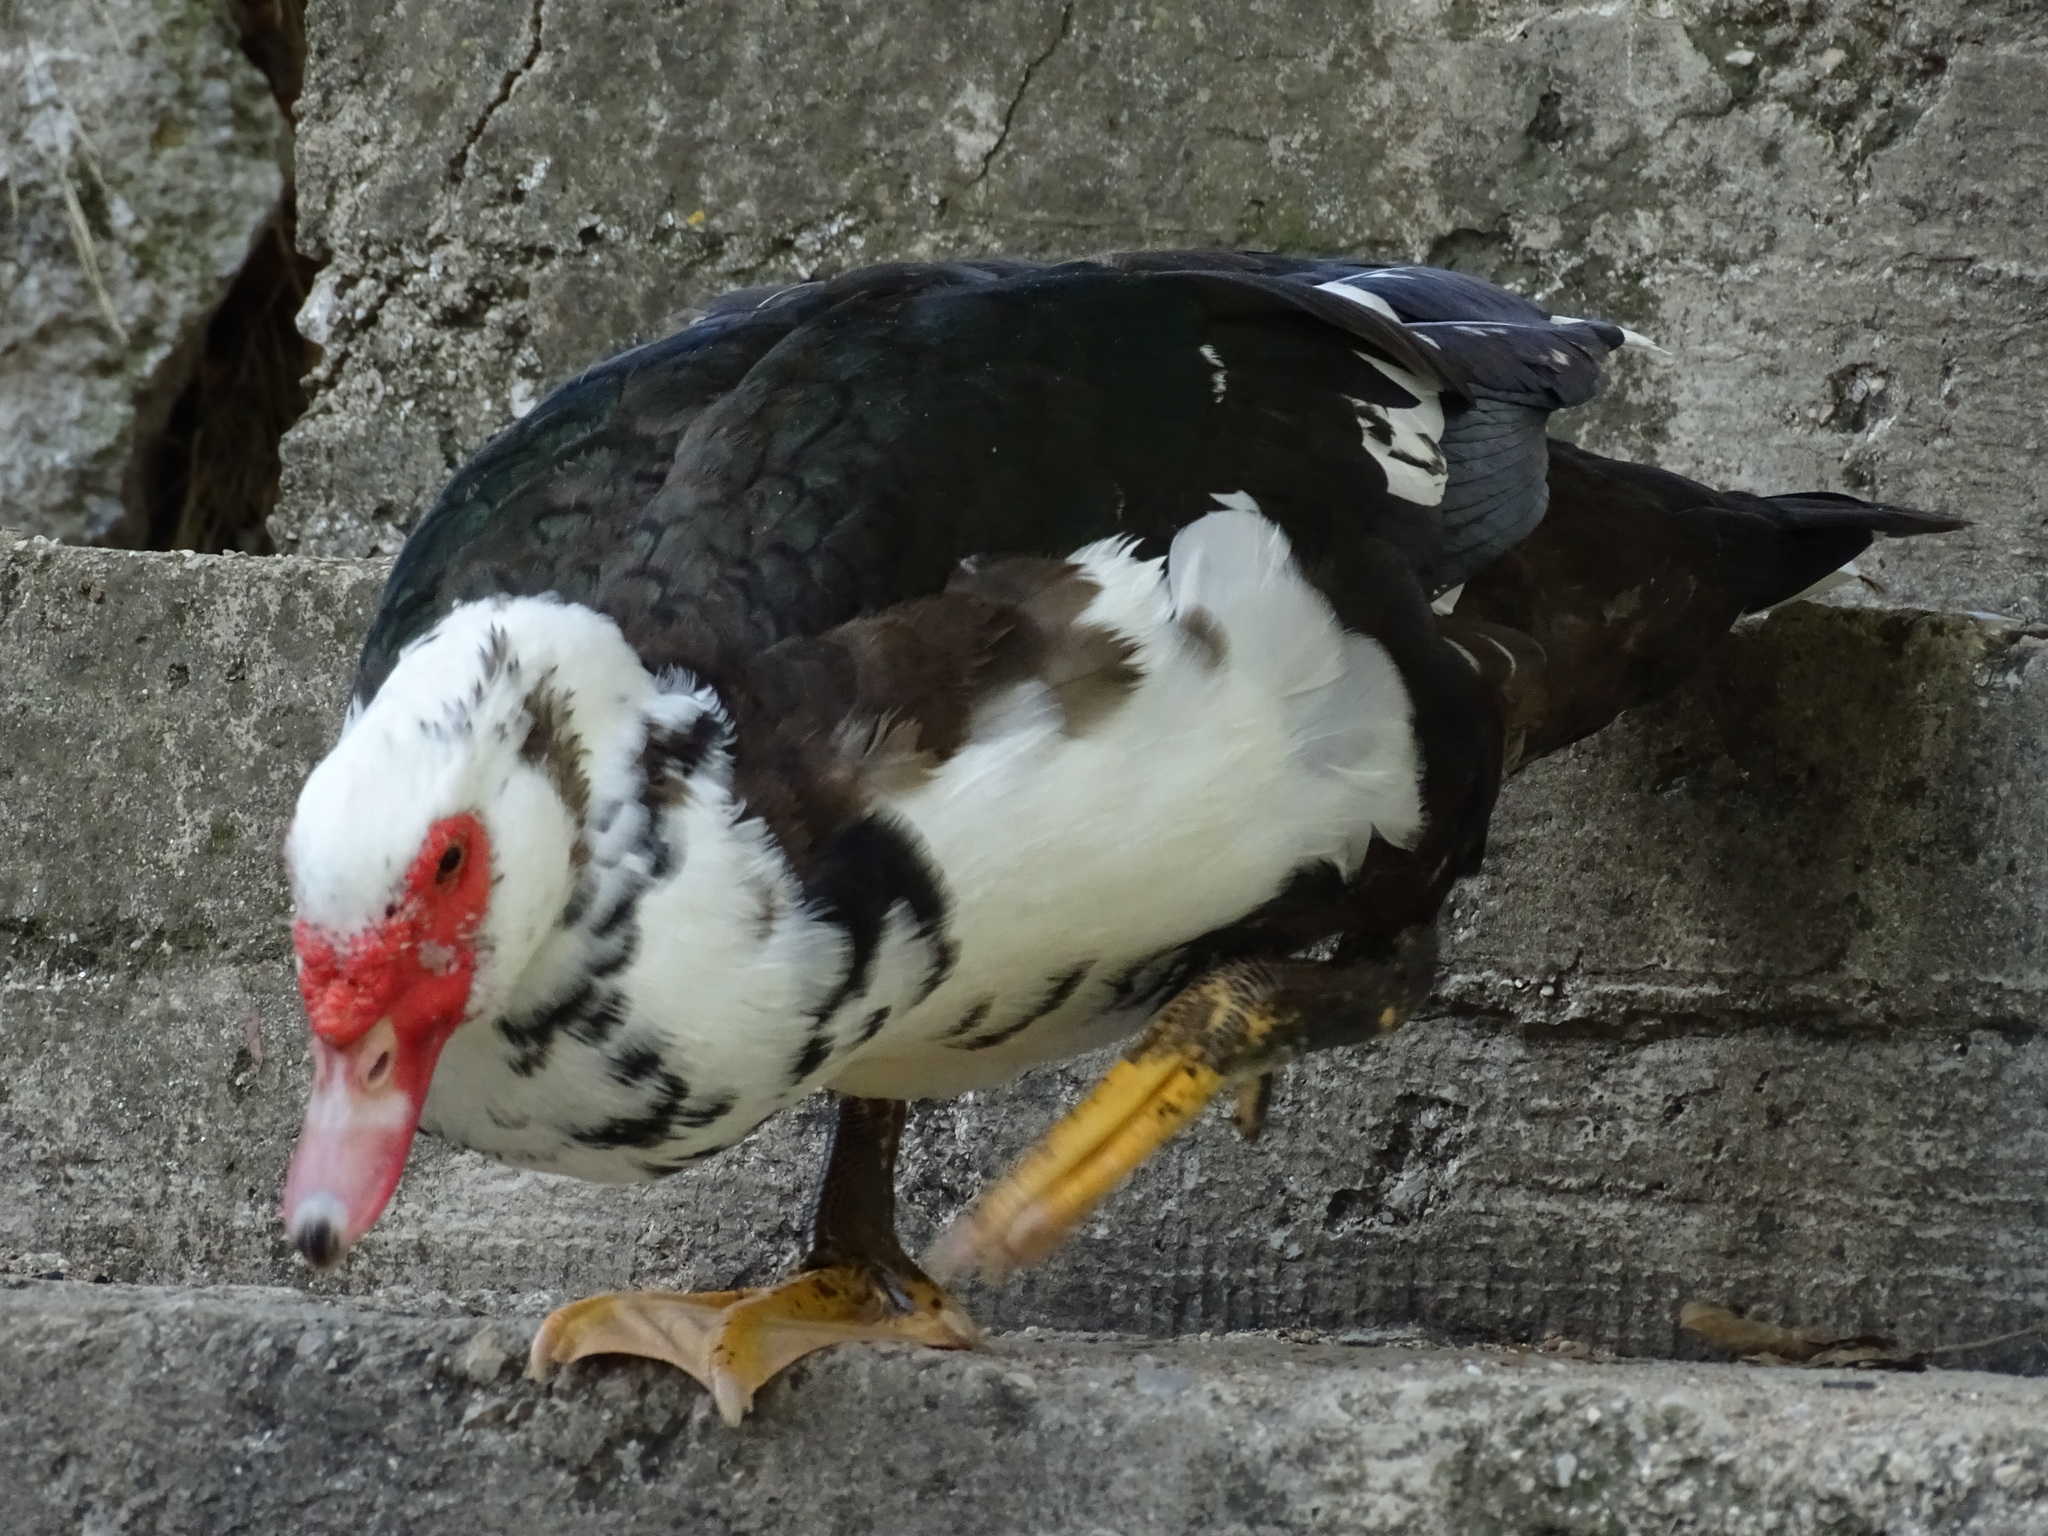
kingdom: Animalia
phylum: Chordata
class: Aves
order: Anseriformes
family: Anatidae
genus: Cairina
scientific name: Cairina moschata
